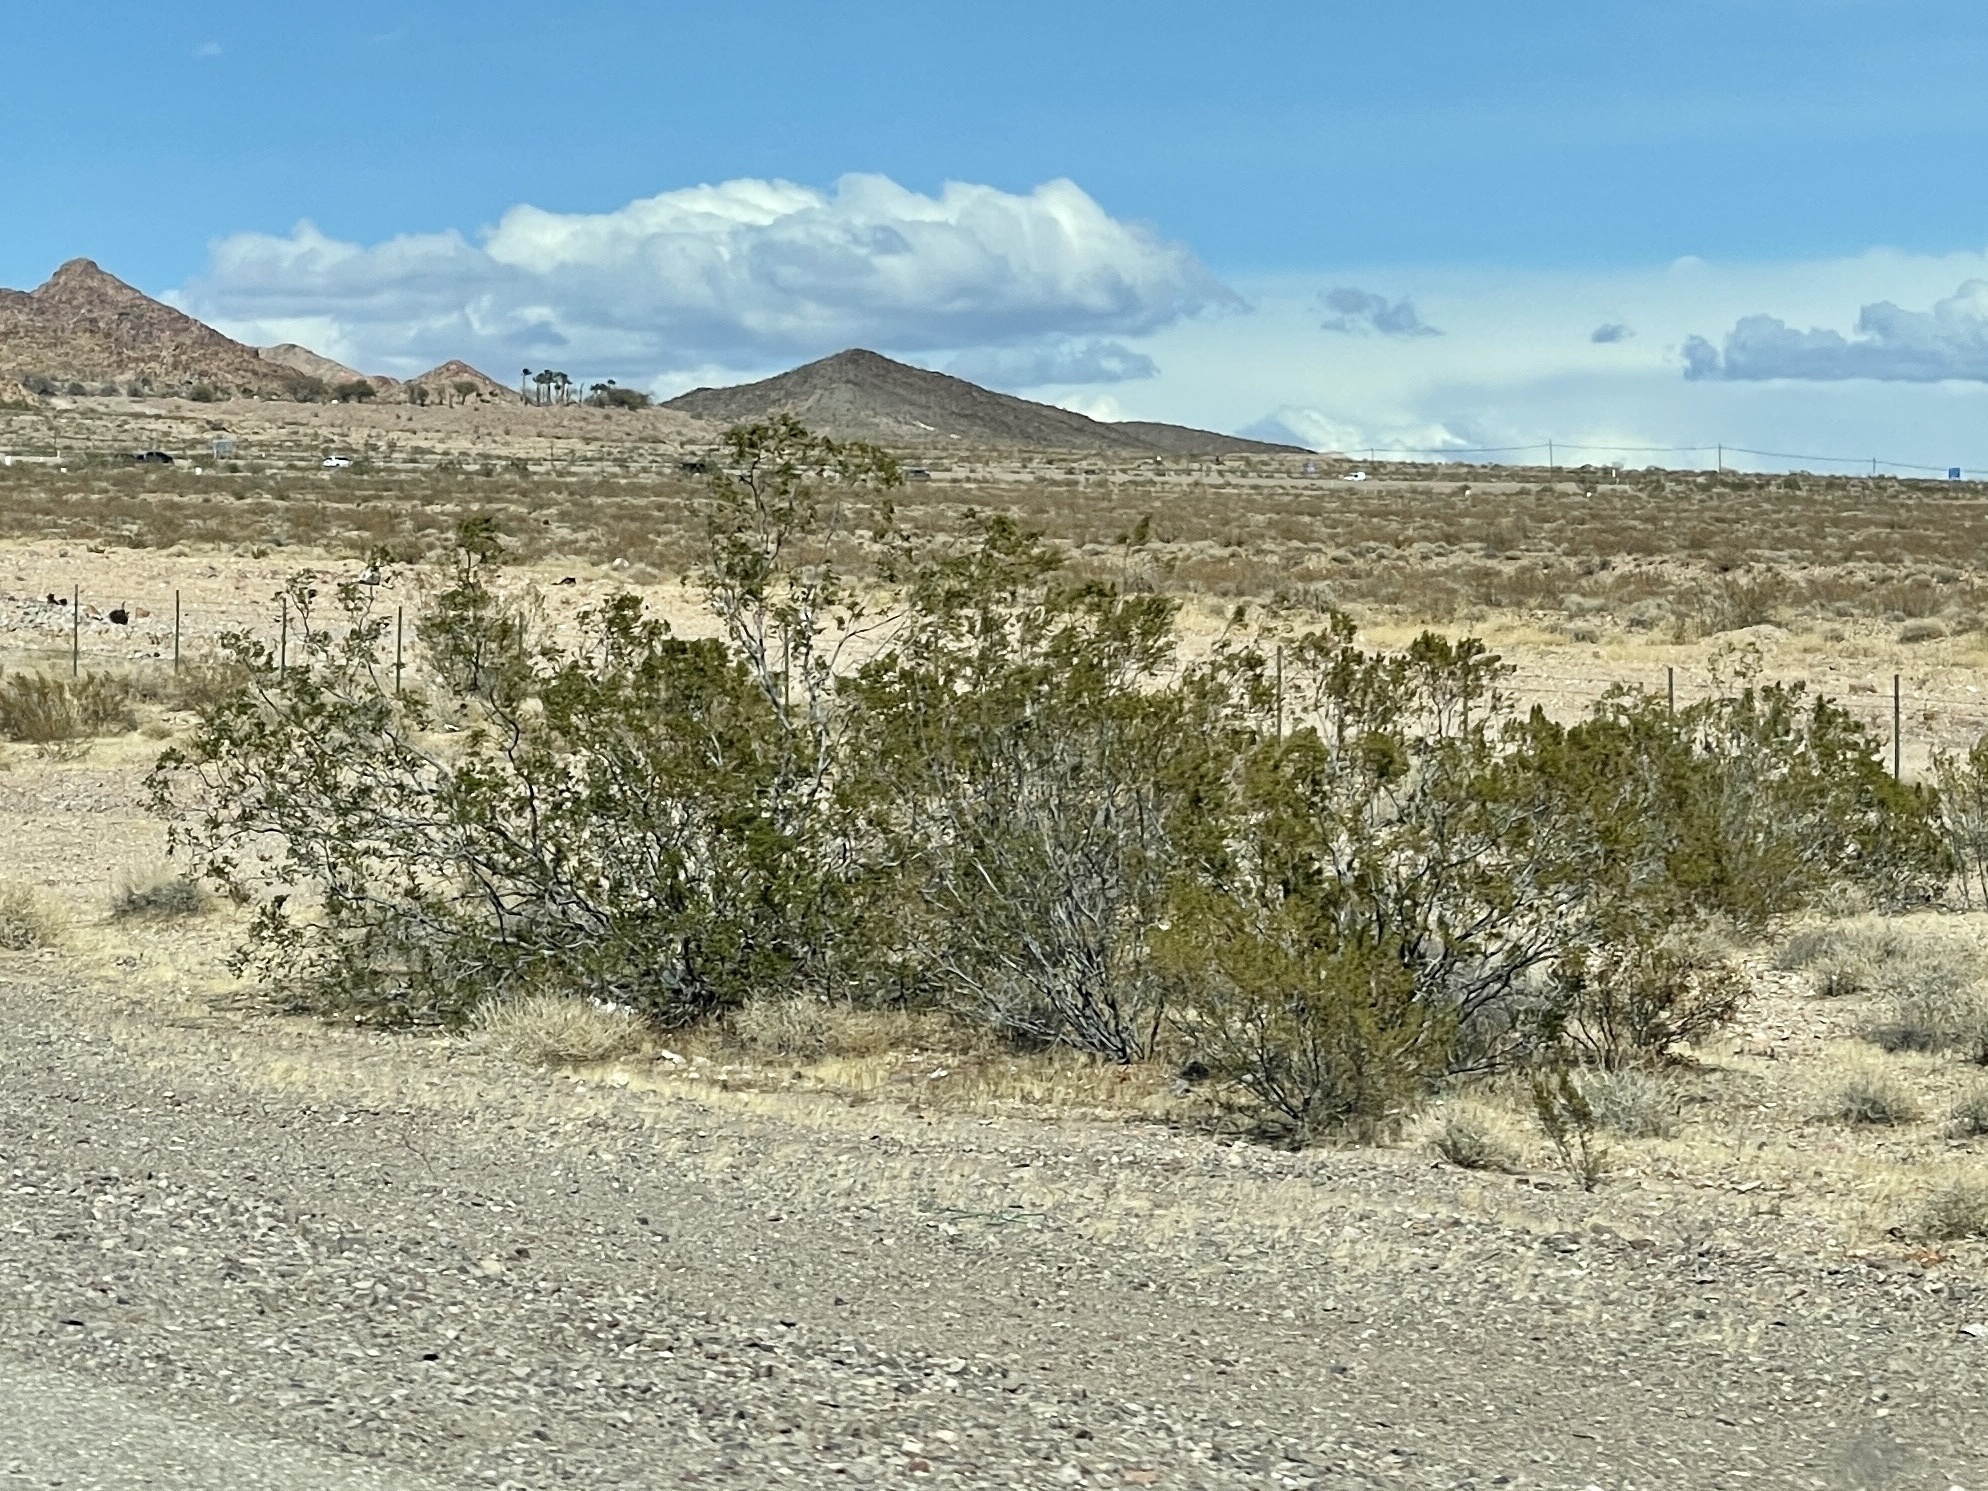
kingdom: Plantae
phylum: Tracheophyta
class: Magnoliopsida
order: Zygophyllales
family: Zygophyllaceae
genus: Larrea
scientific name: Larrea tridentata
